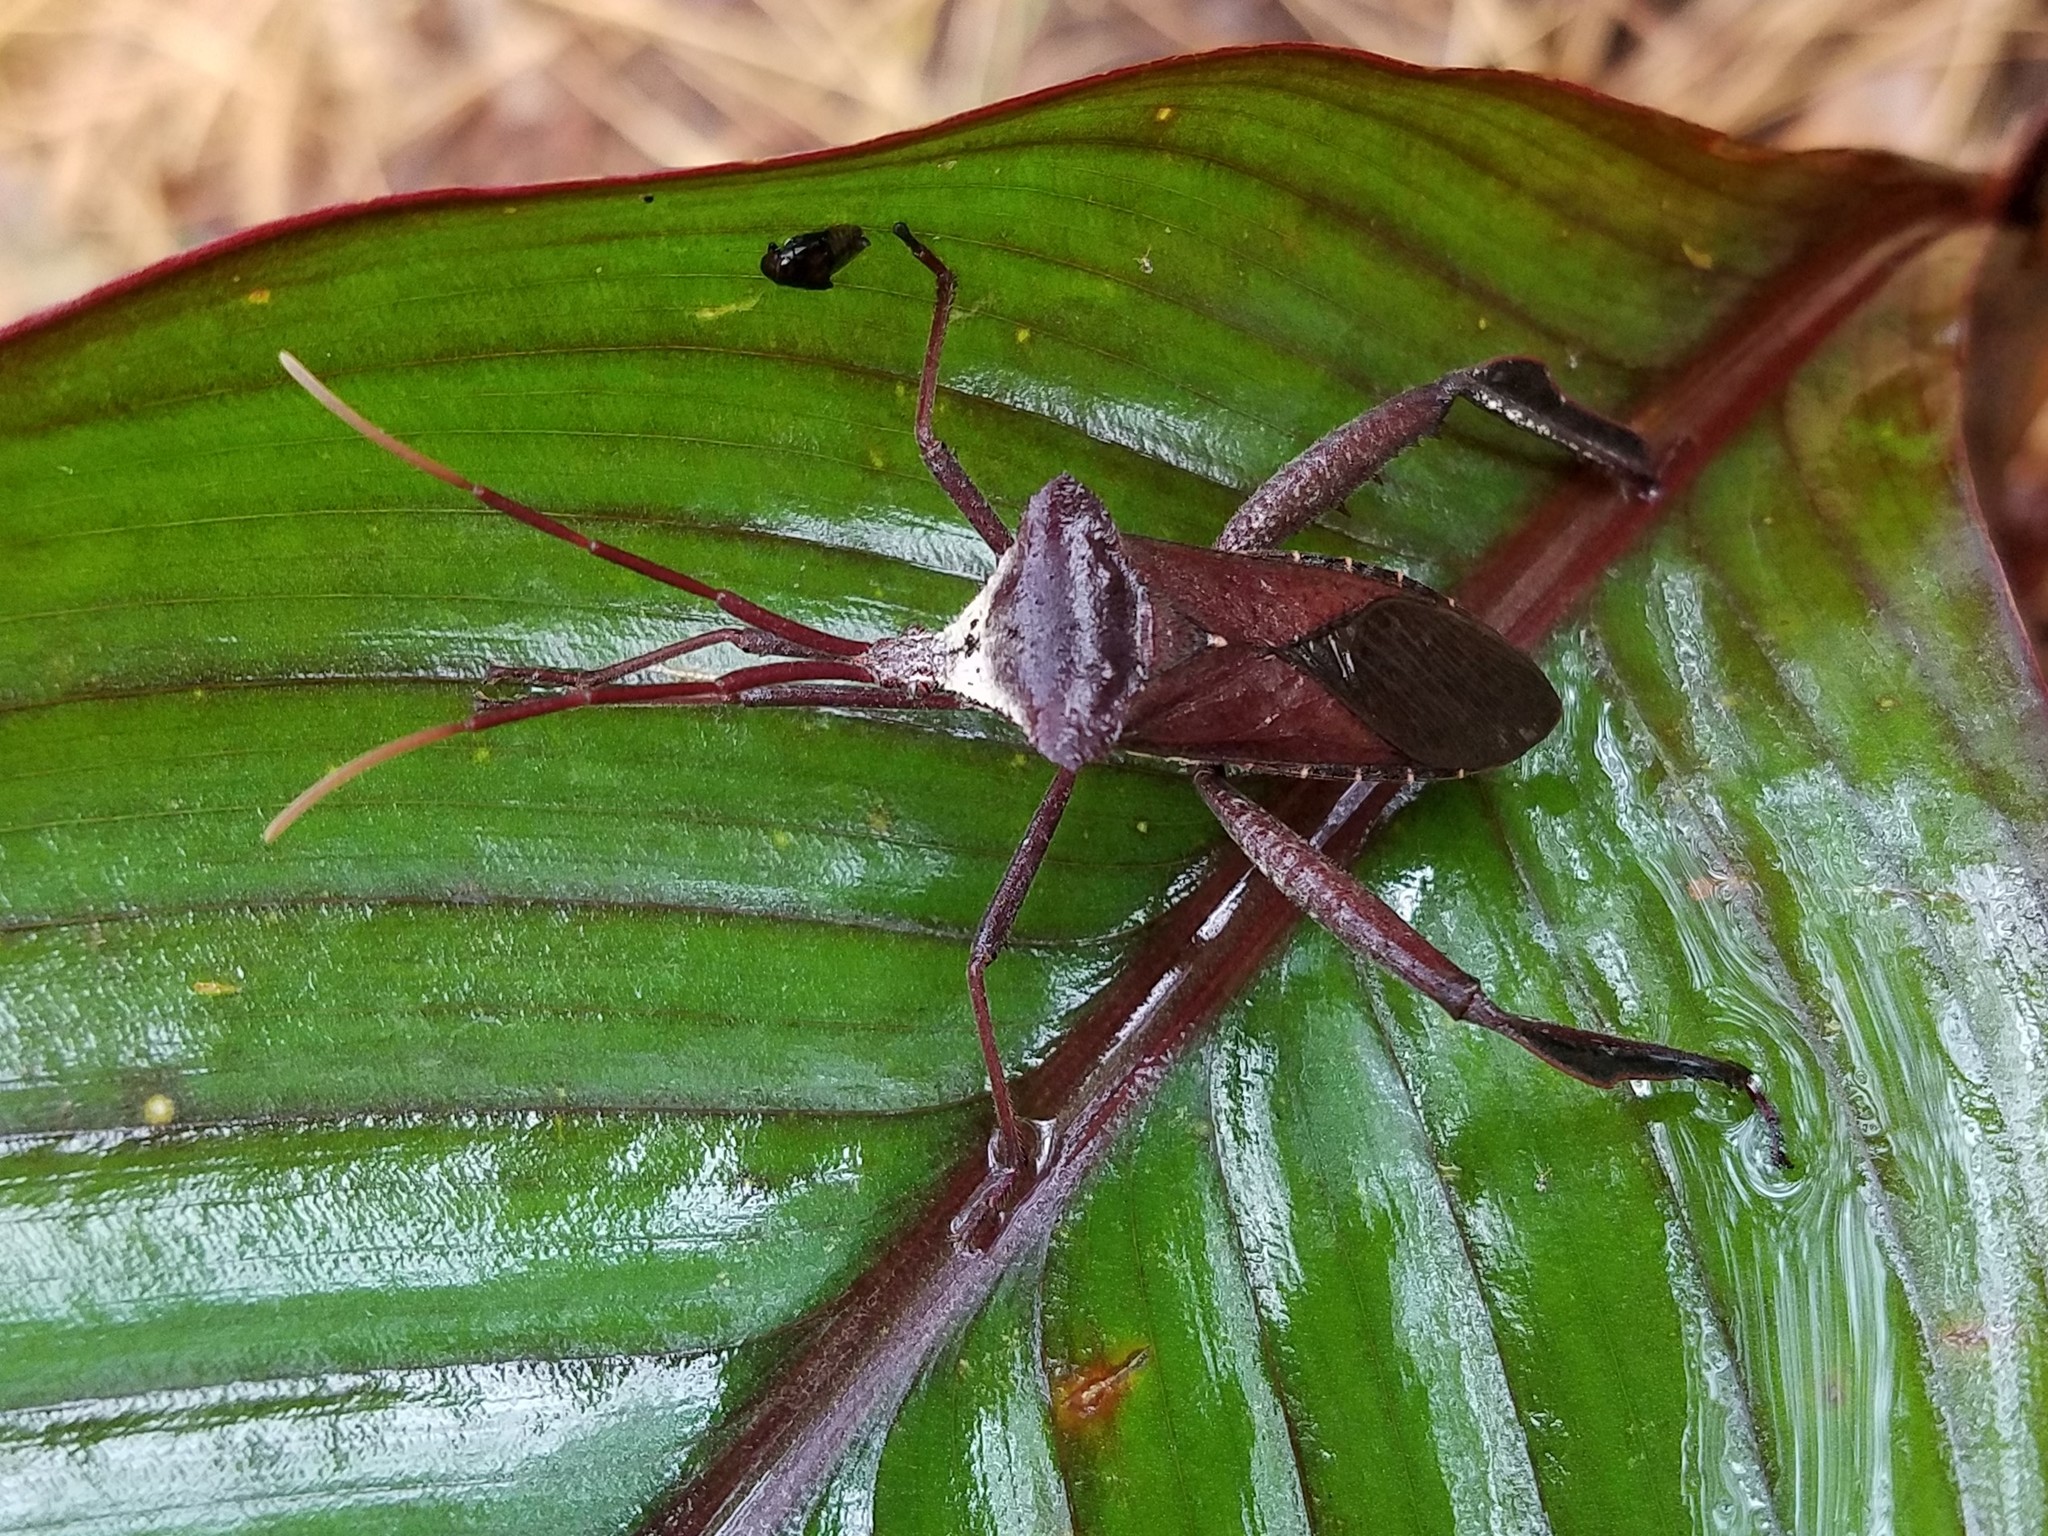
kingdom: Animalia
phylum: Arthropoda
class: Insecta
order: Hemiptera
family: Coreidae
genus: Acanthocephala
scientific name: Acanthocephala declivis
